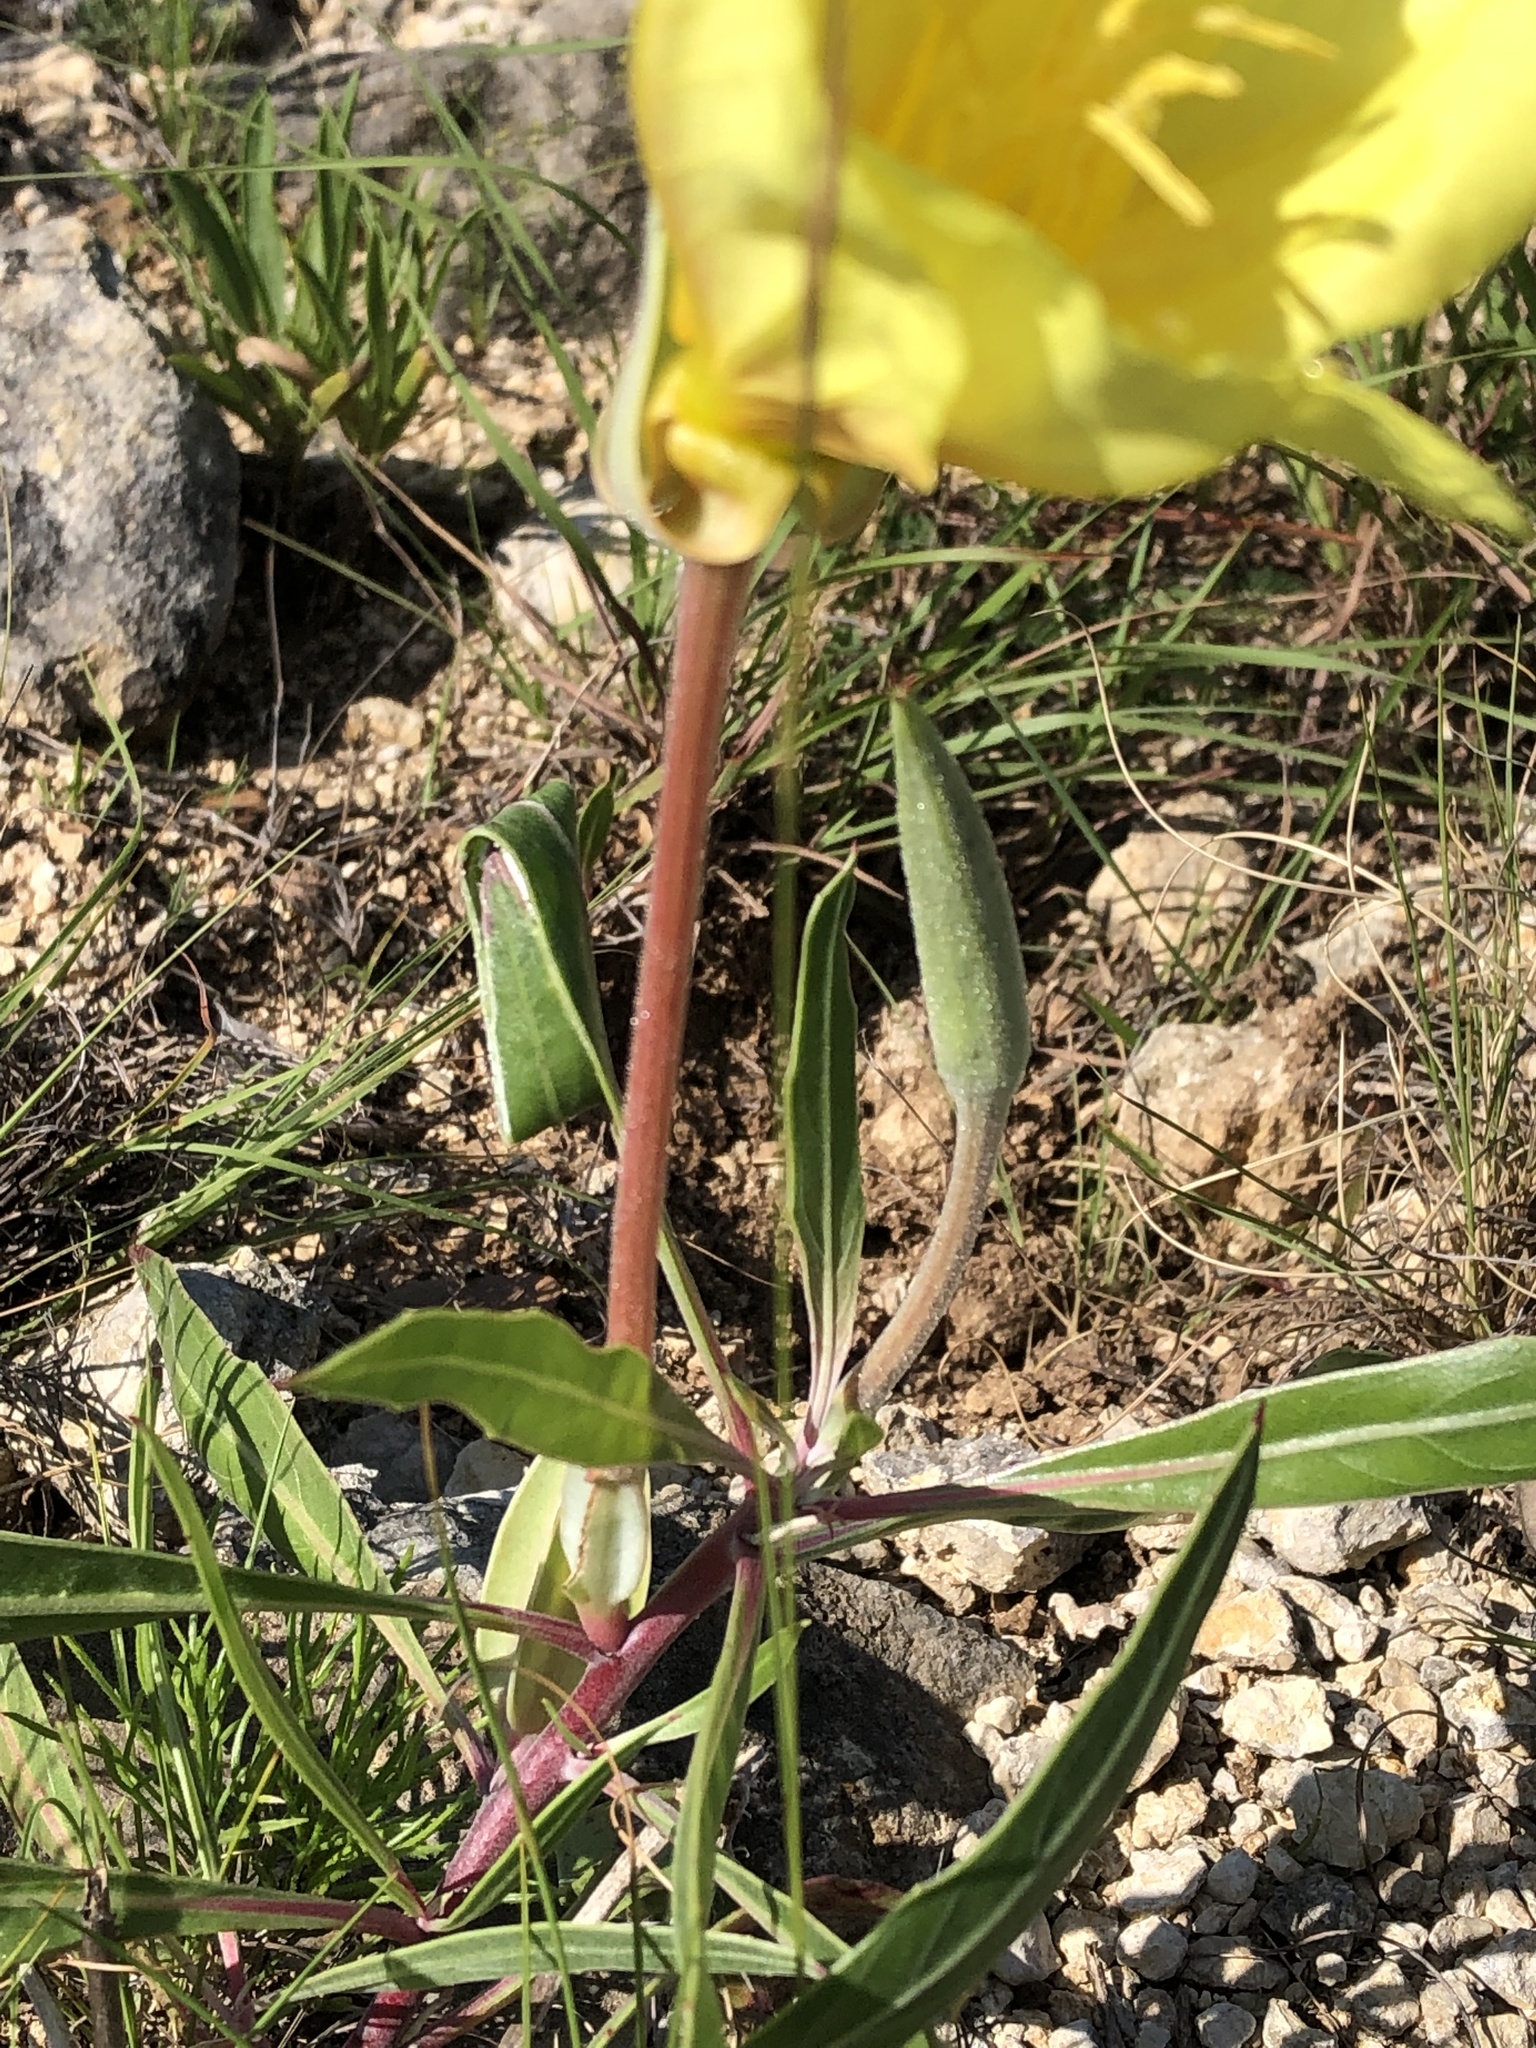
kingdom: Plantae
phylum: Tracheophyta
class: Magnoliopsida
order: Myrtales
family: Onagraceae
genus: Oenothera
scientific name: Oenothera macrocarpa
